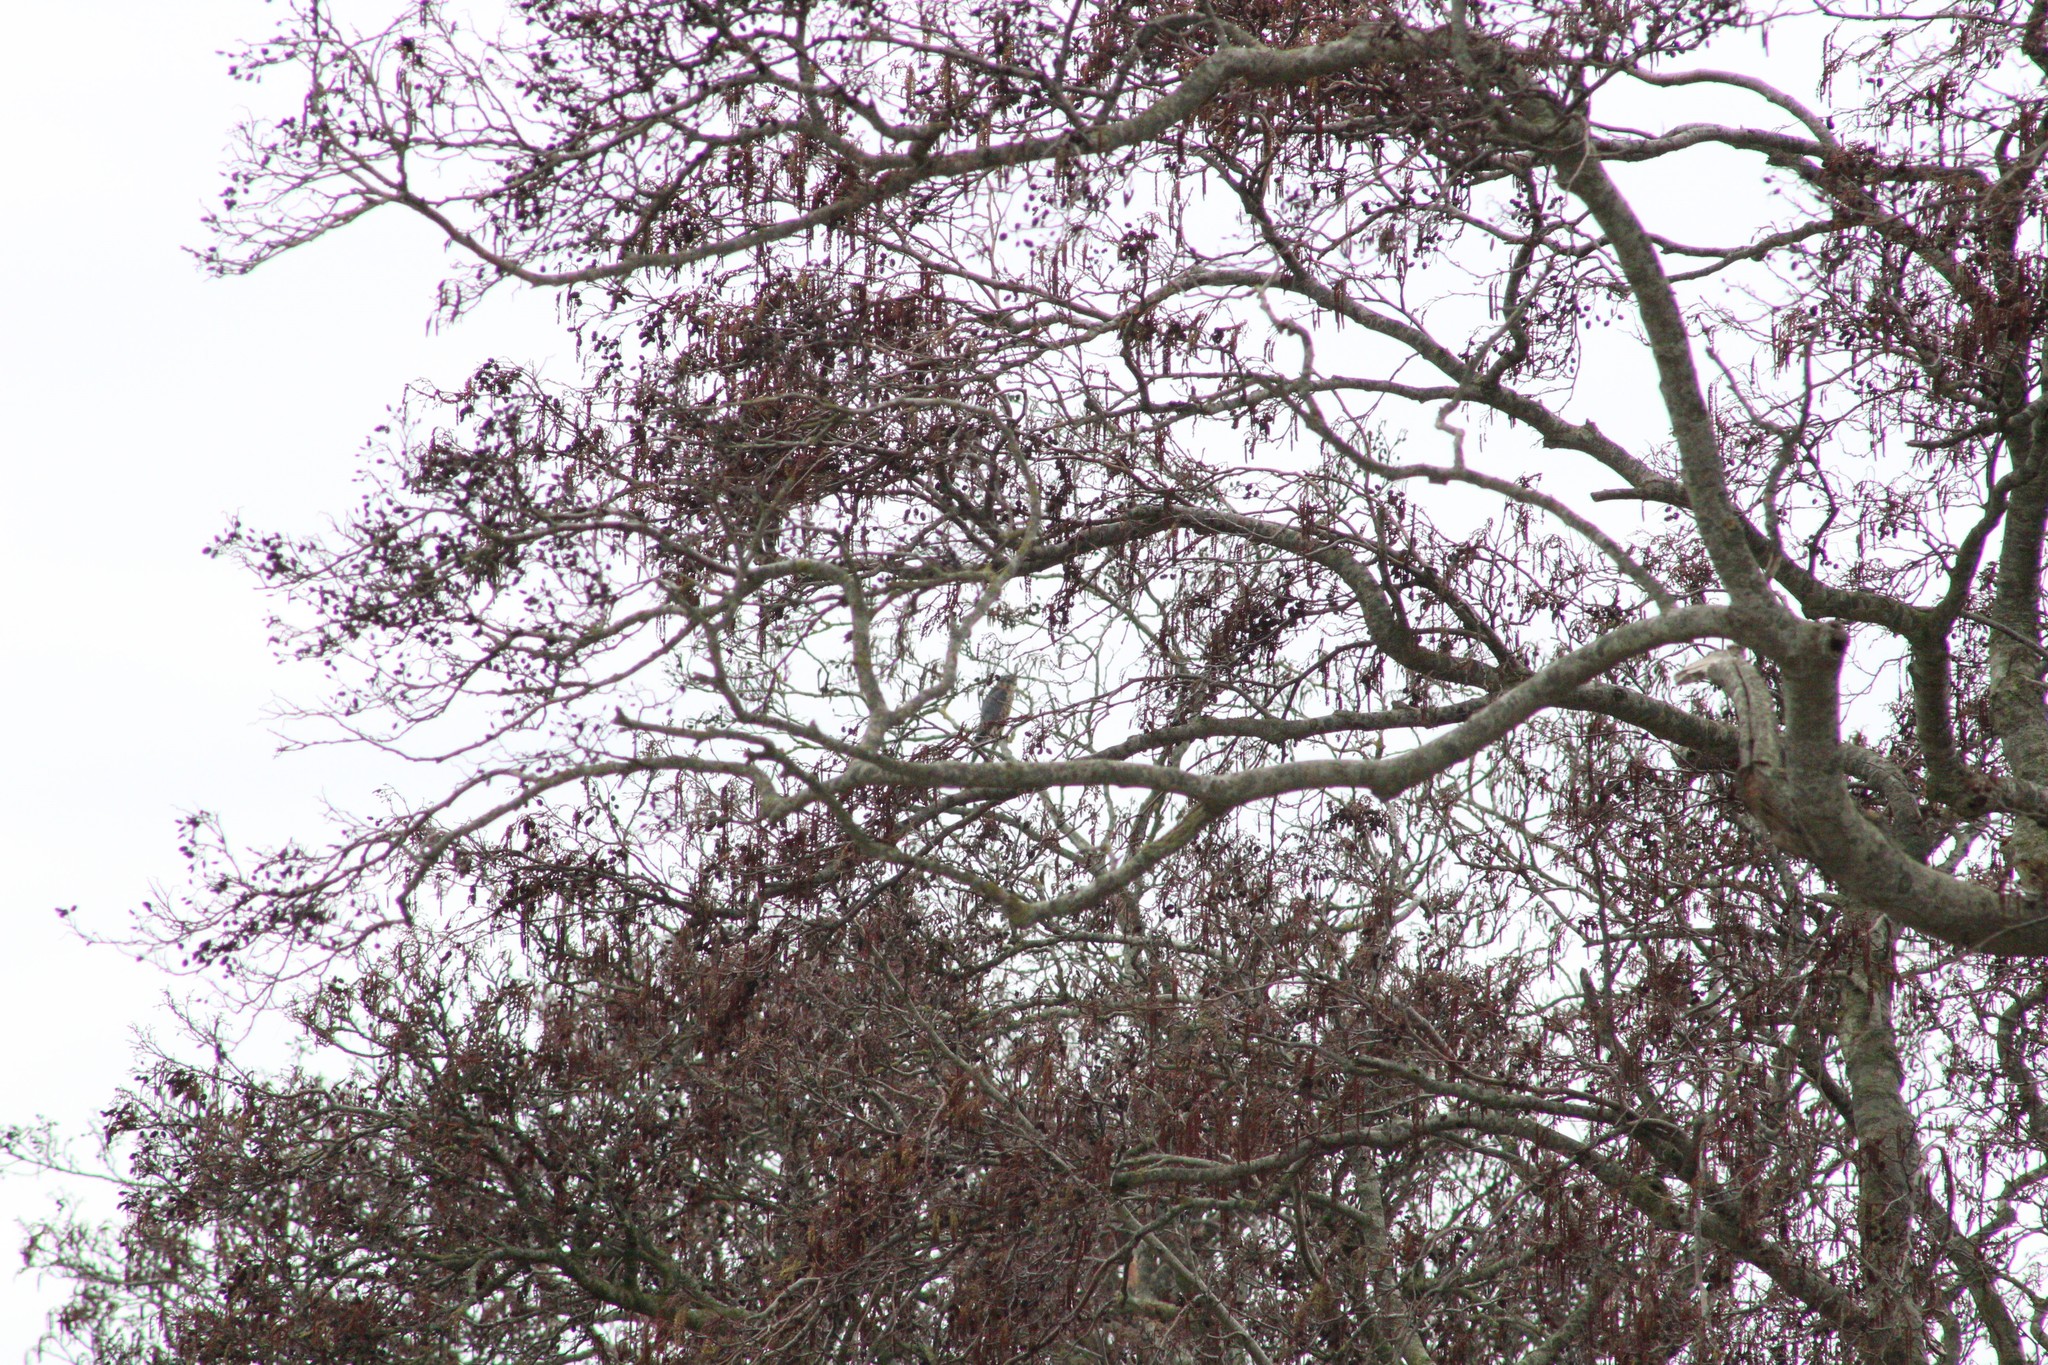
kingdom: Animalia
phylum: Chordata
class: Aves
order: Falconiformes
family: Falconidae
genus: Falco
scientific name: Falco columbarius
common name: Merlin
